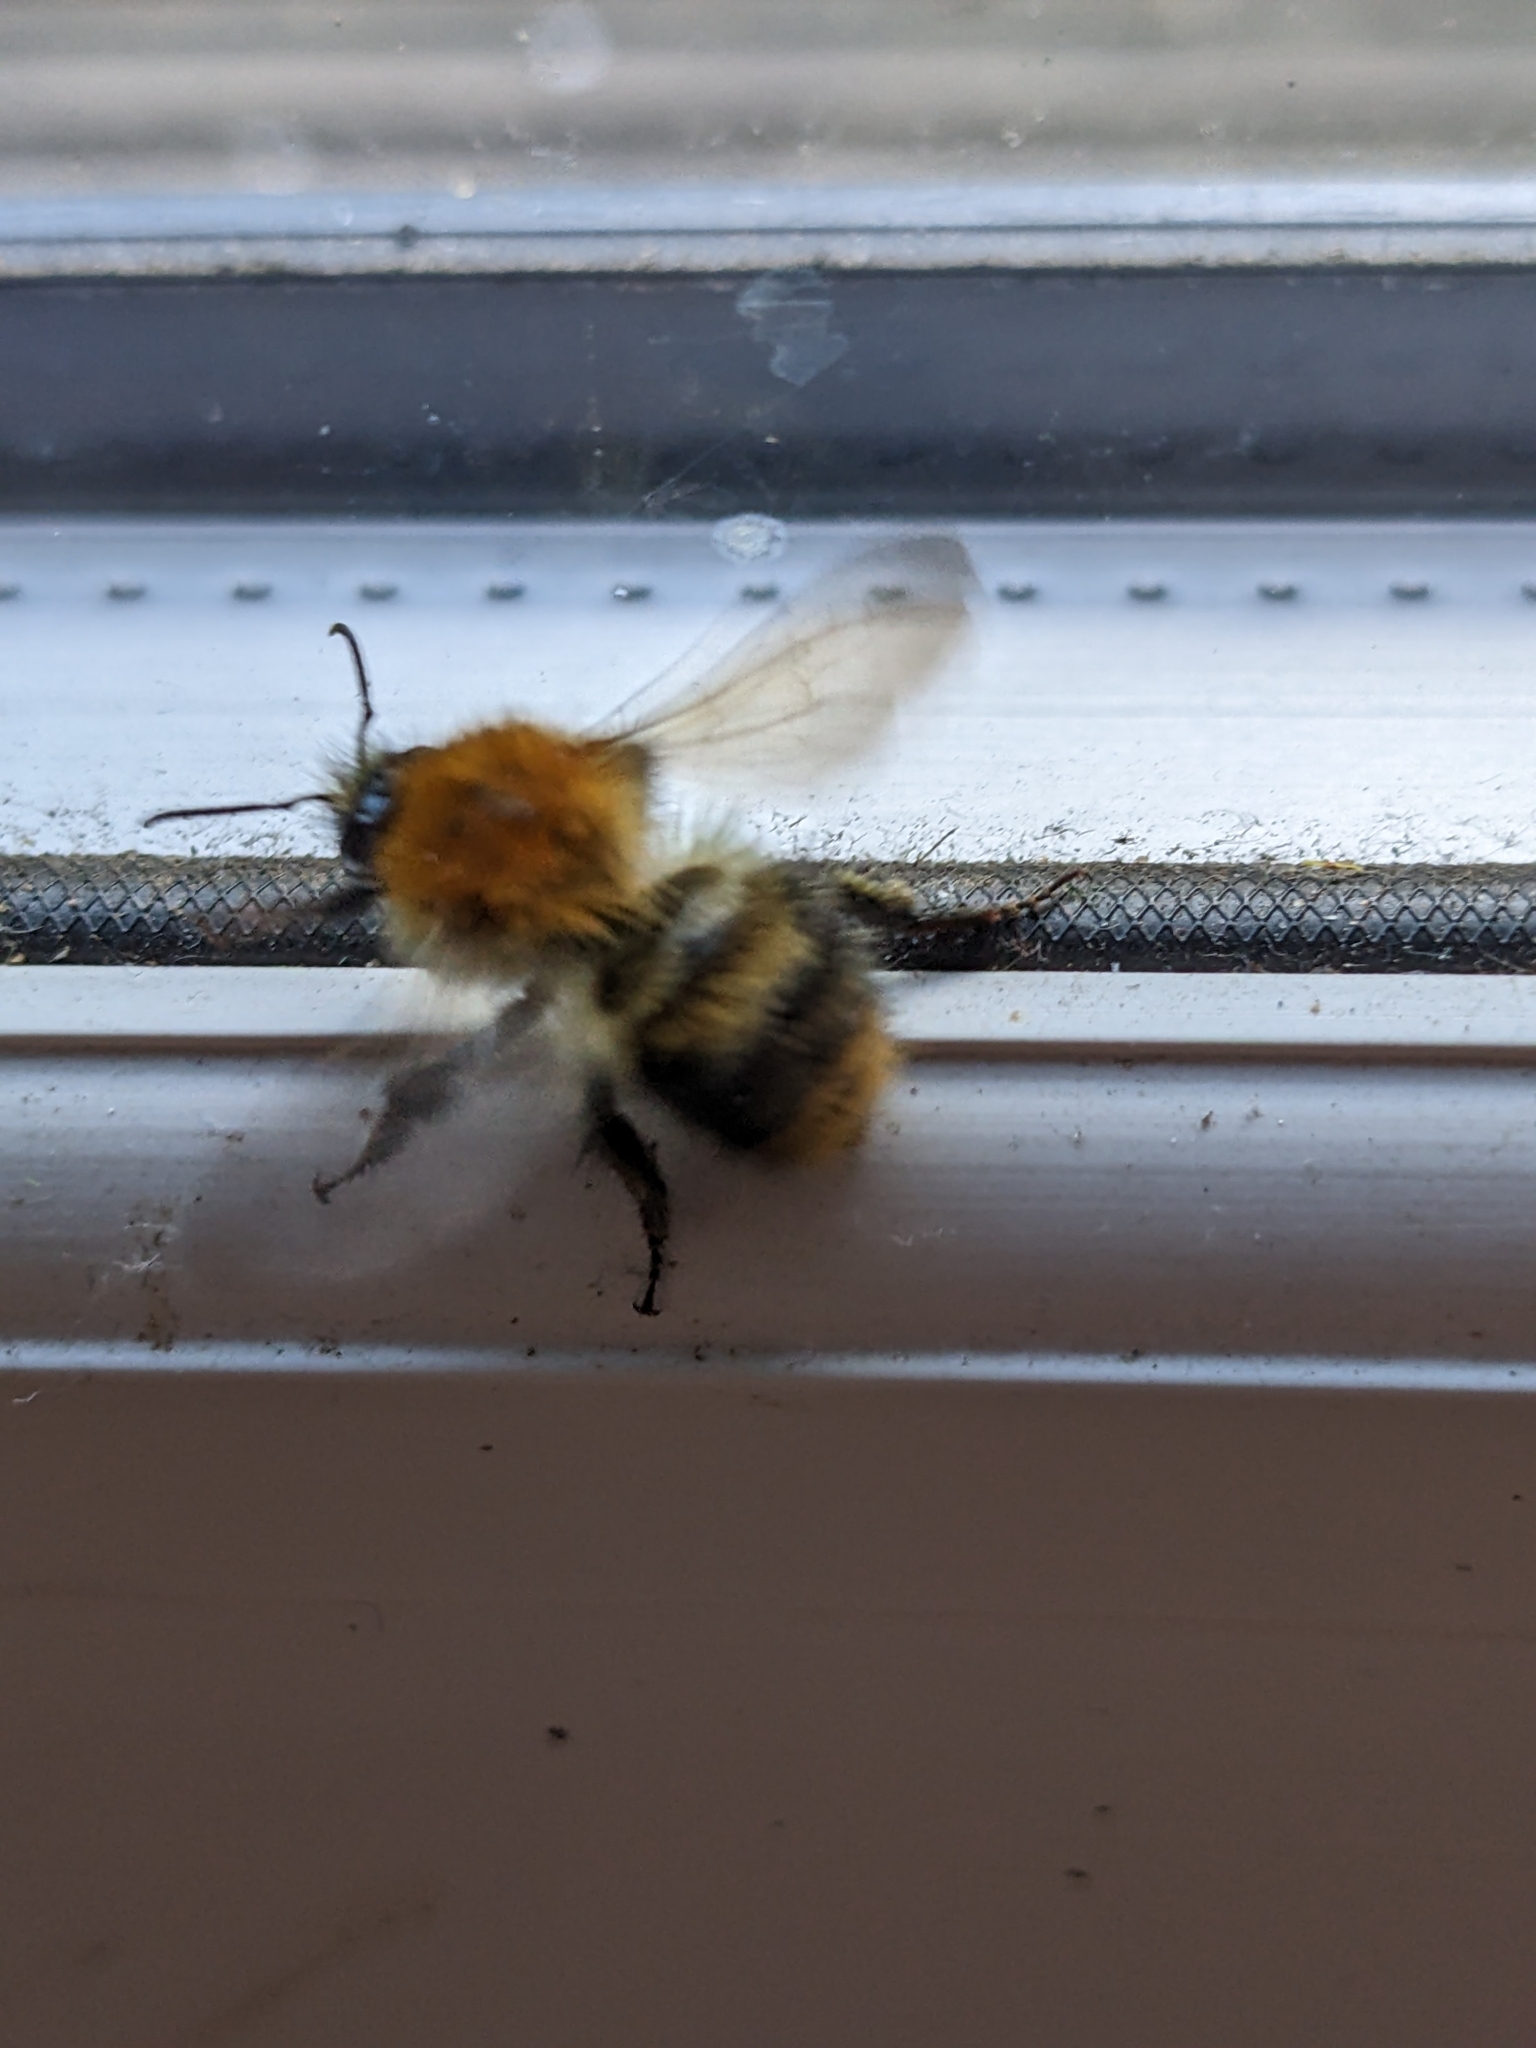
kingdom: Animalia
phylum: Arthropoda
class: Insecta
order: Hymenoptera
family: Apidae
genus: Bombus
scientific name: Bombus pascuorum
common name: Common carder bee
